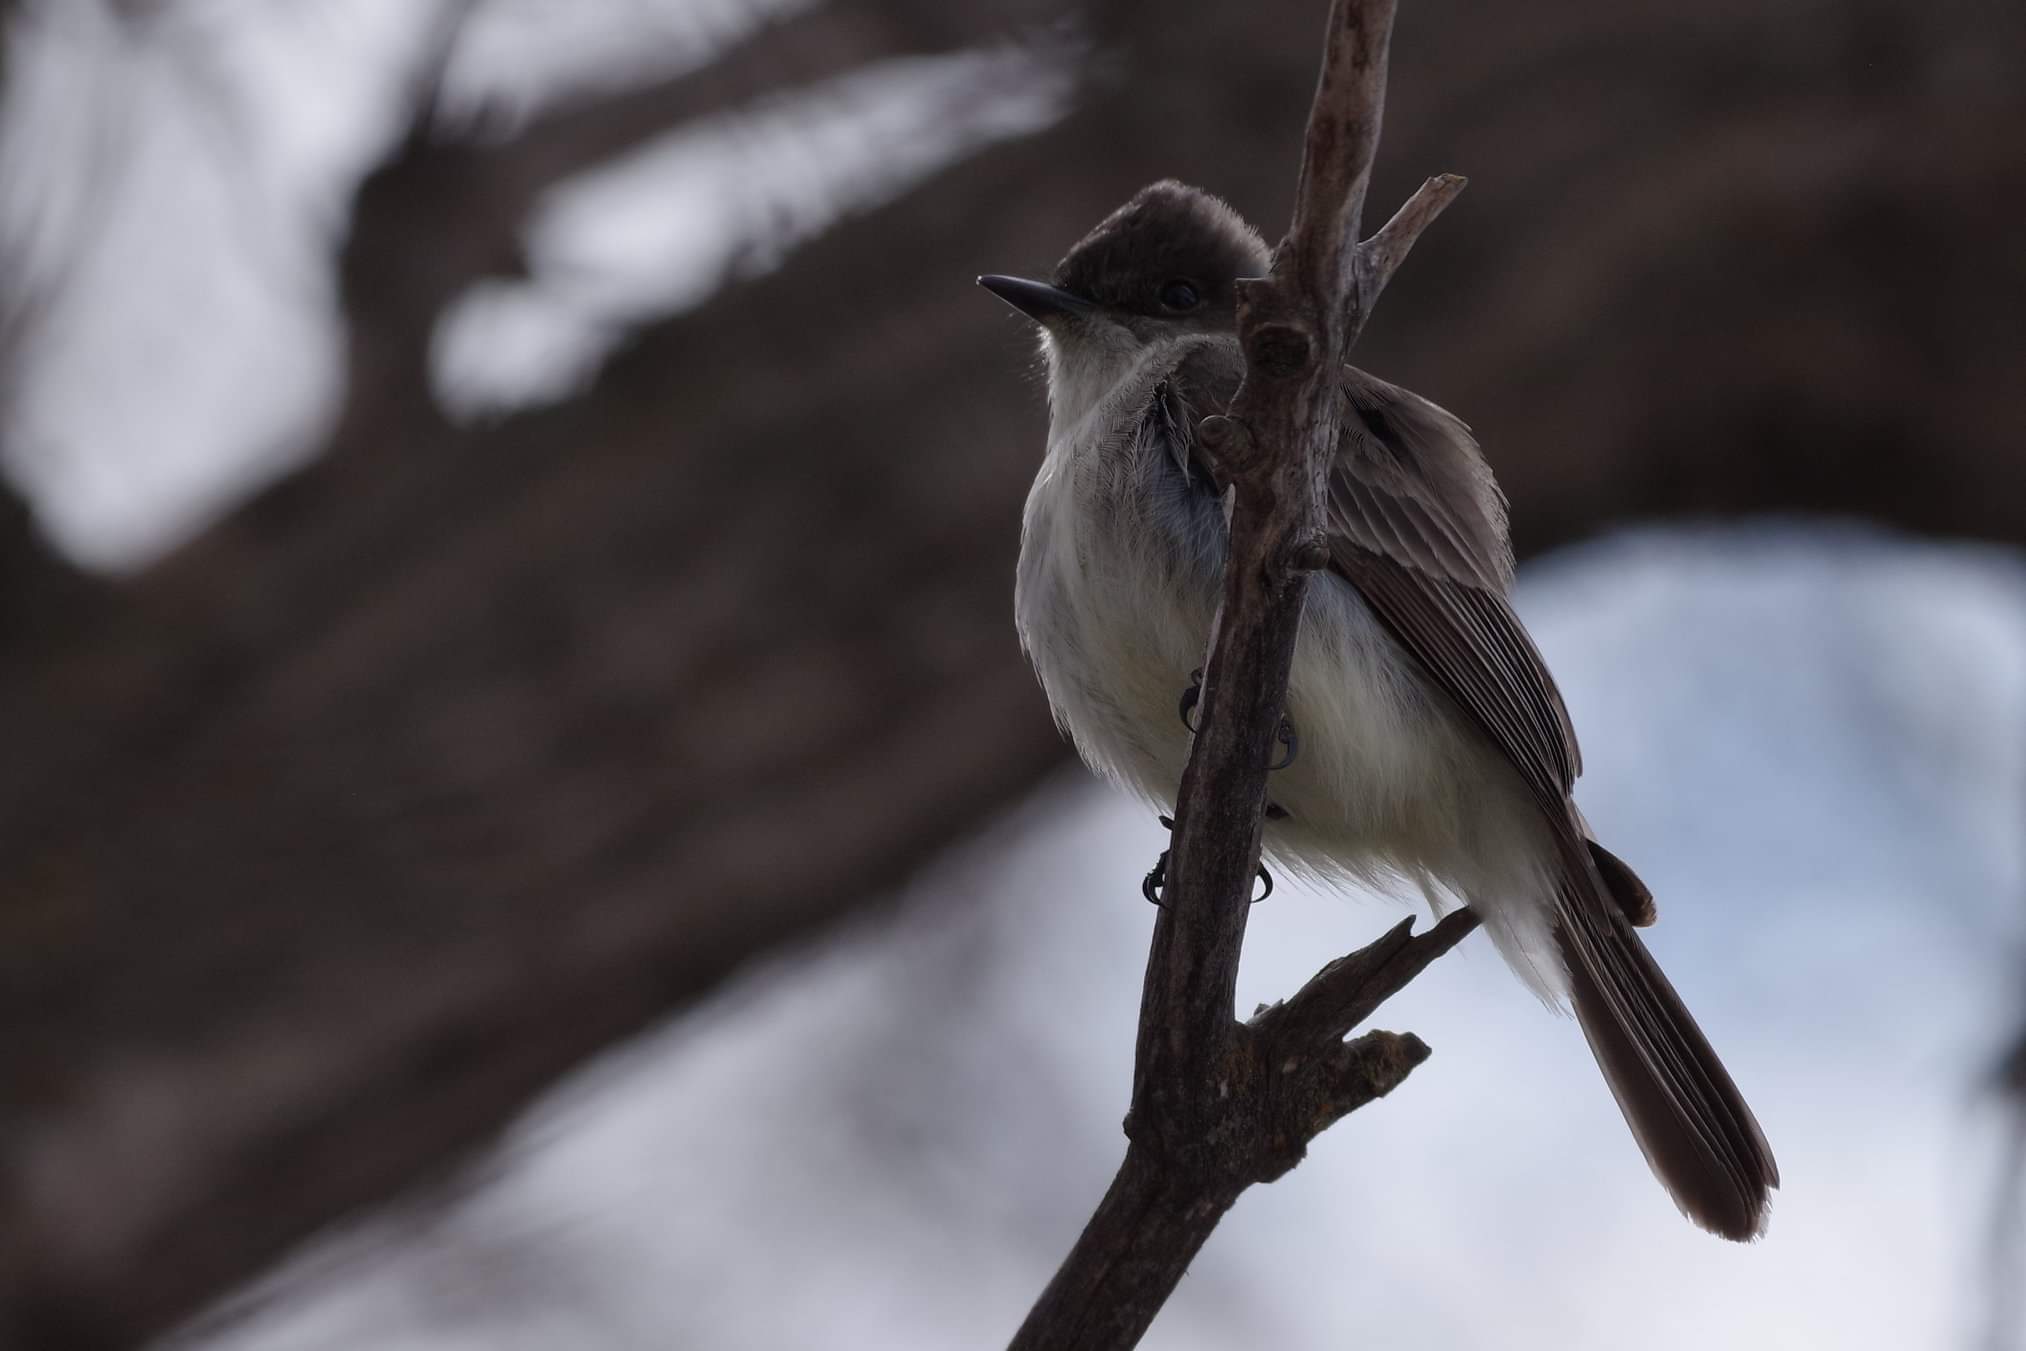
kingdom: Animalia
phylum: Chordata
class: Aves
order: Passeriformes
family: Tyrannidae
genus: Sayornis
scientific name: Sayornis phoebe
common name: Eastern phoebe
